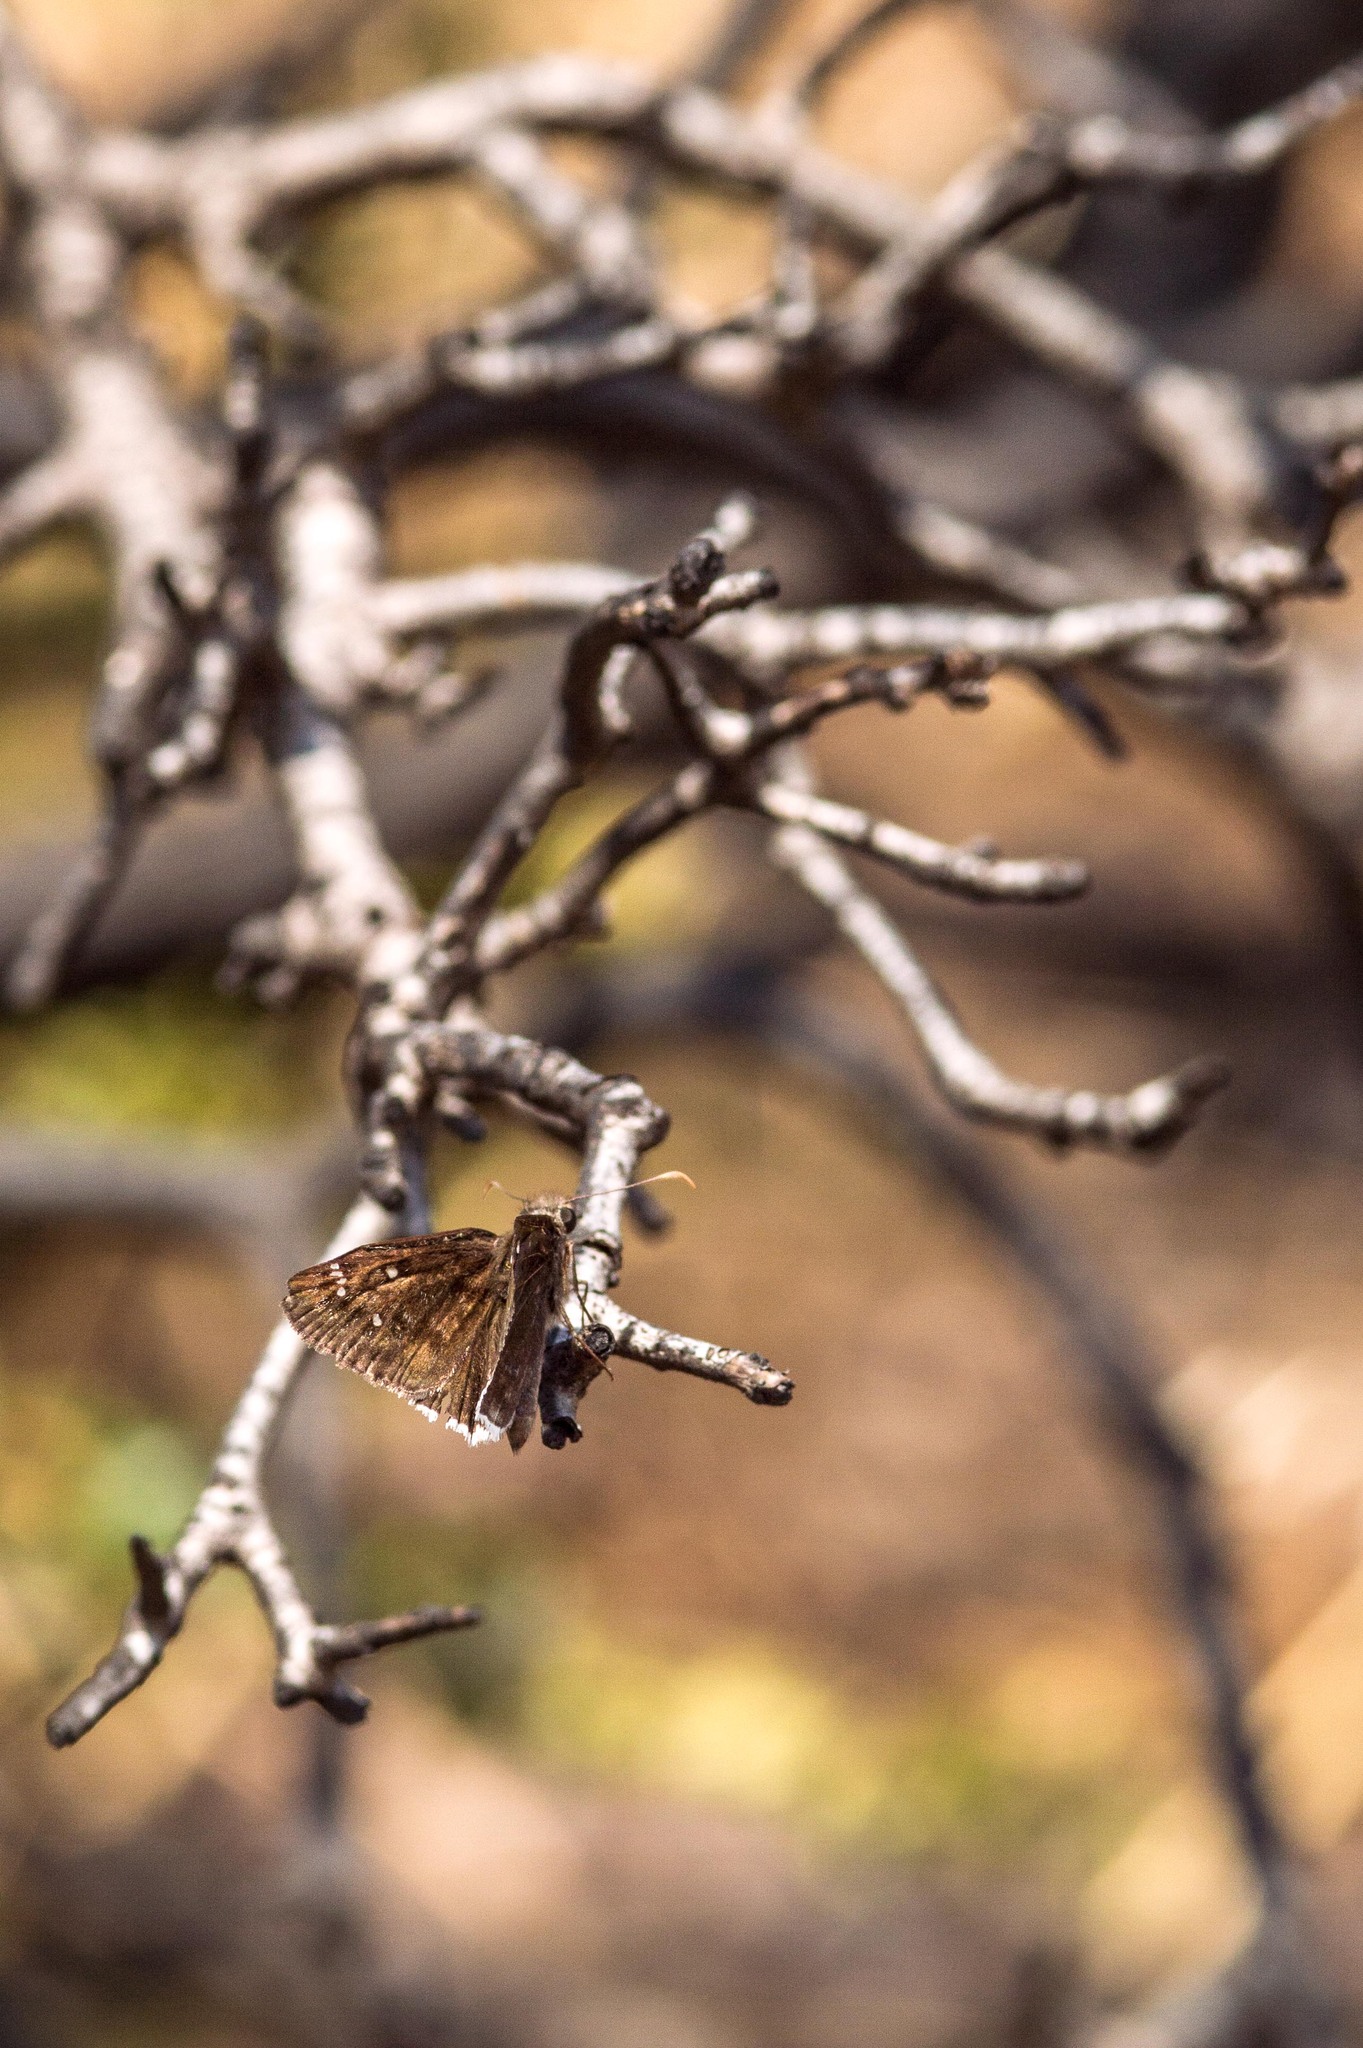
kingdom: Animalia
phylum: Arthropoda
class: Insecta
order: Lepidoptera
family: Hesperiidae
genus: Erynnis
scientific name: Erynnis tristis
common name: Mournful duskywing
